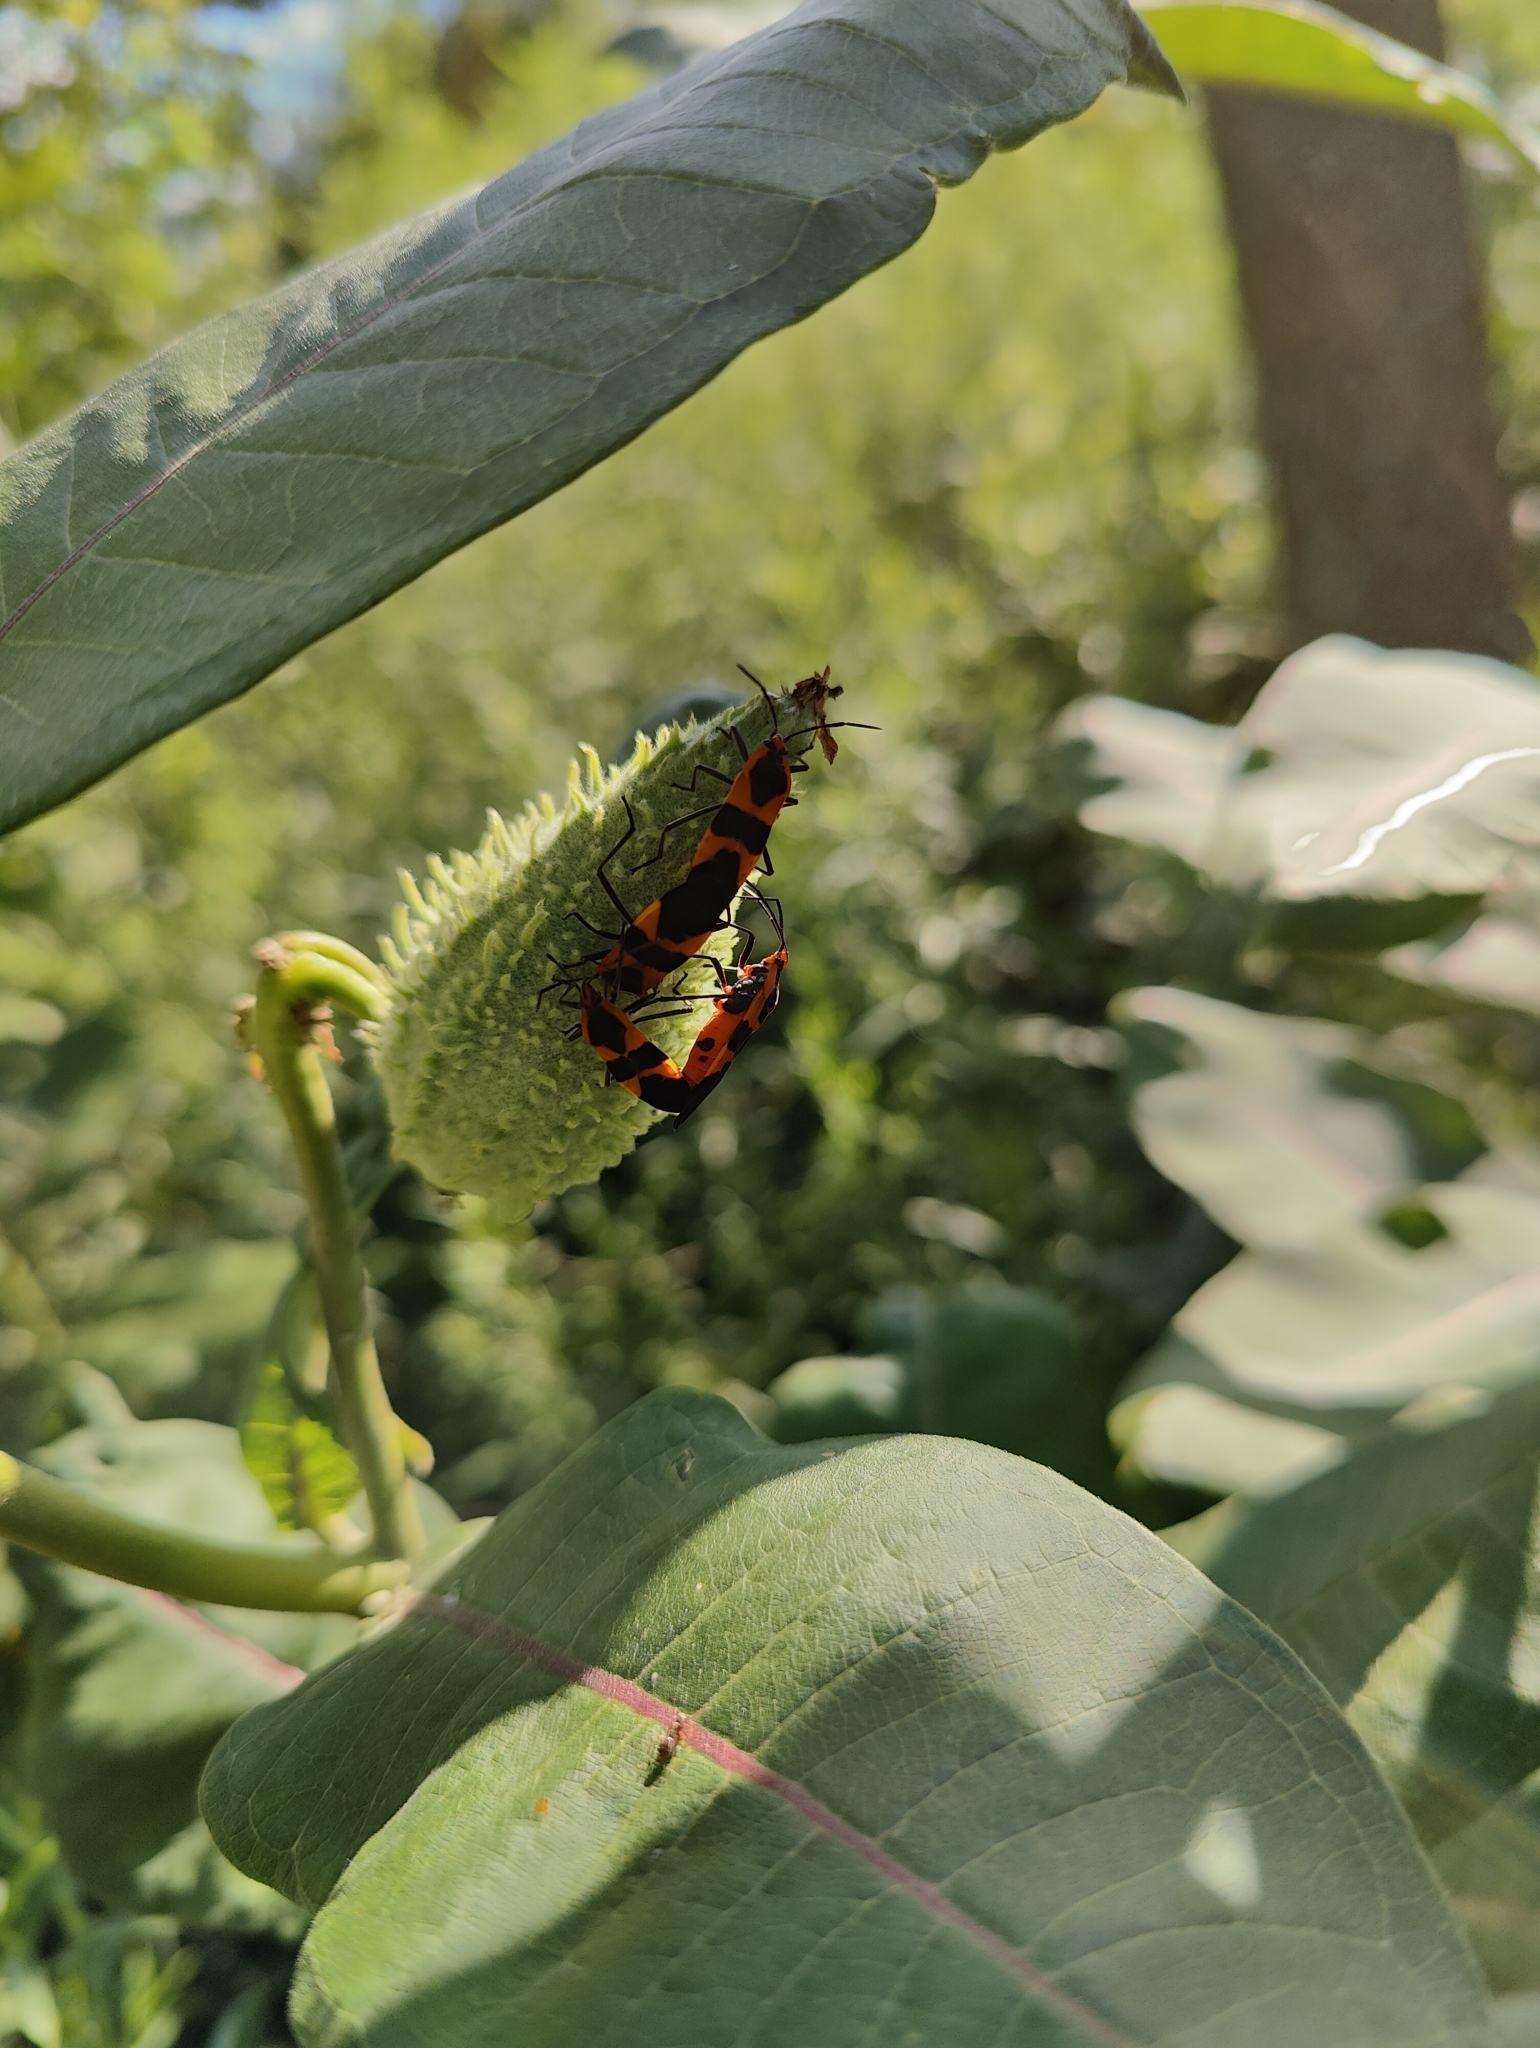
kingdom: Animalia
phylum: Arthropoda
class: Insecta
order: Hemiptera
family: Lygaeidae
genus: Oncopeltus
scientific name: Oncopeltus fasciatus
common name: Large milkweed bug
